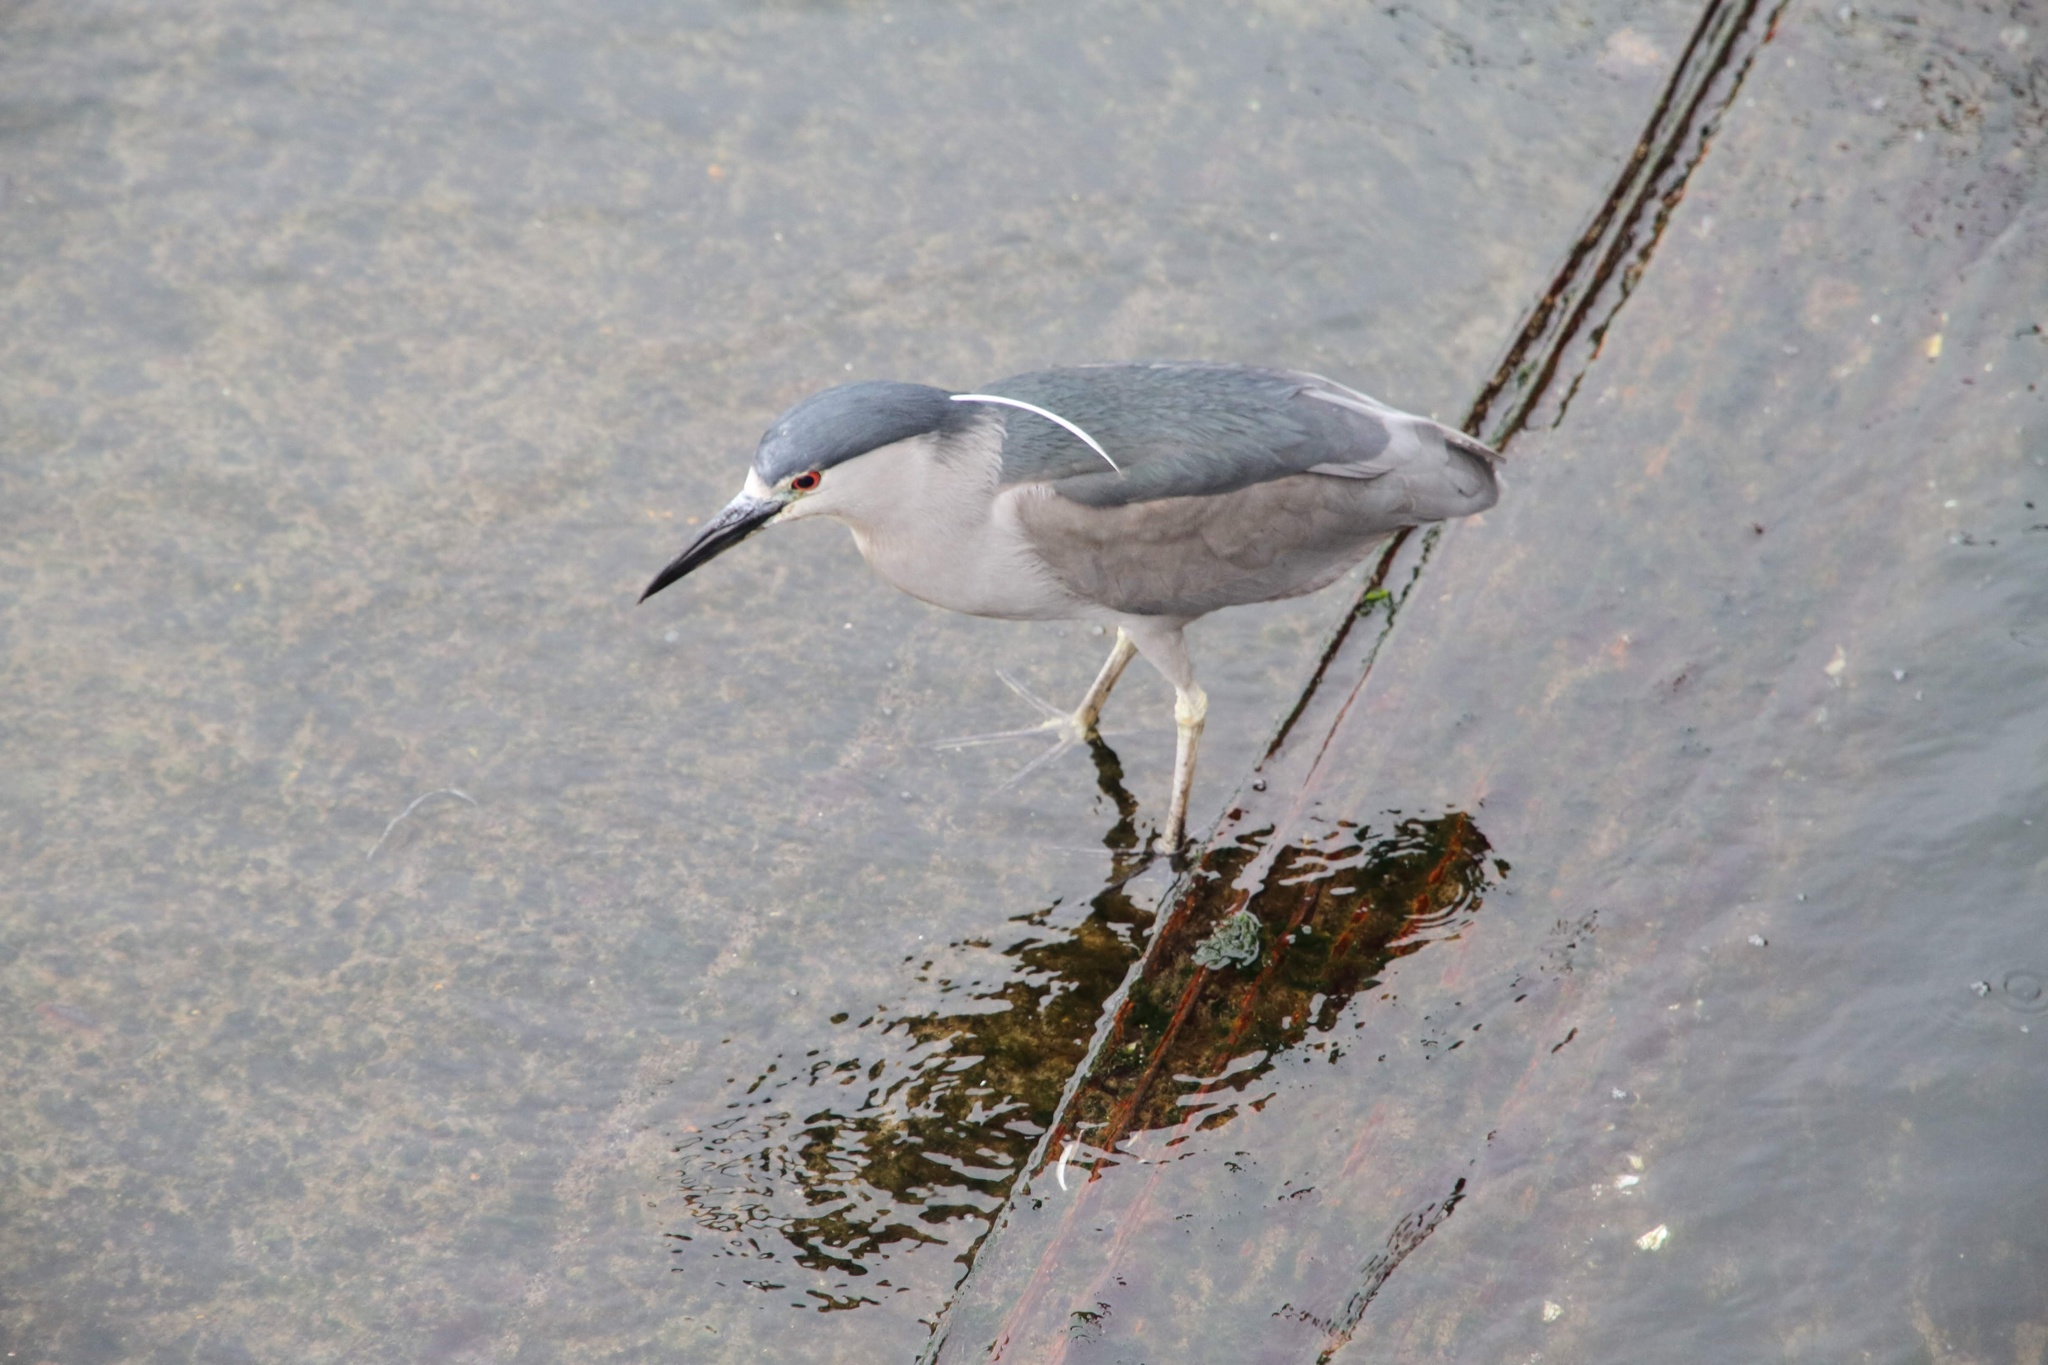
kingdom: Animalia
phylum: Chordata
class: Aves
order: Pelecaniformes
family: Ardeidae
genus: Nycticorax
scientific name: Nycticorax nycticorax
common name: Black-crowned night heron
